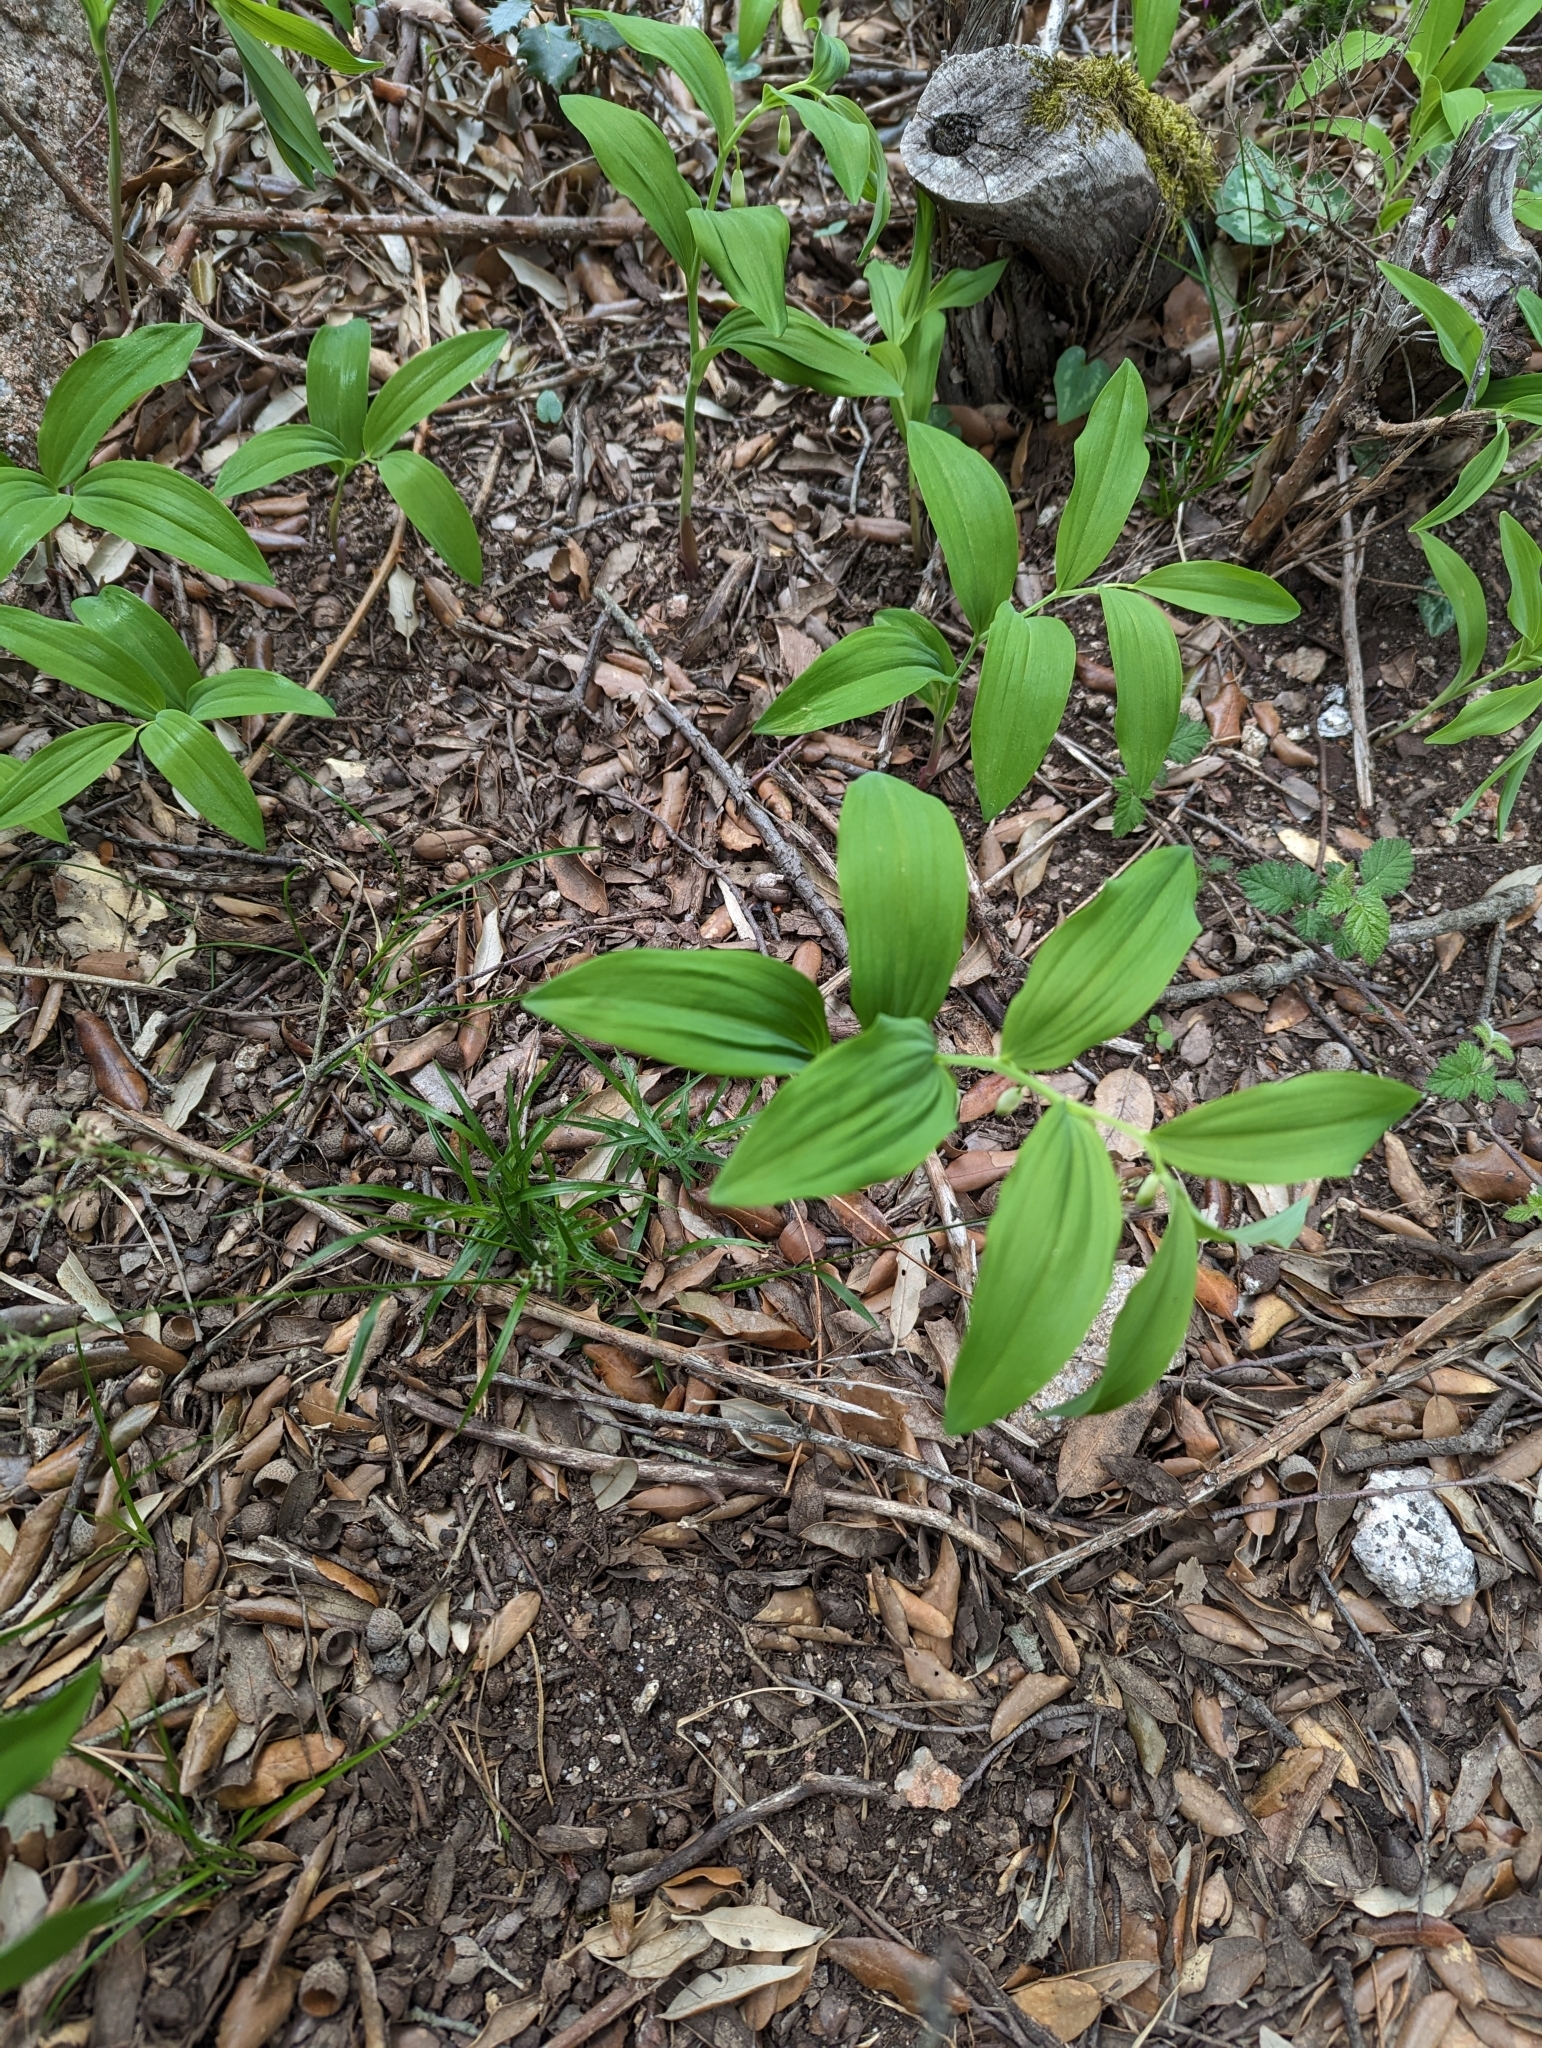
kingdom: Plantae
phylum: Tracheophyta
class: Liliopsida
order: Asparagales
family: Asparagaceae
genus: Polygonatum
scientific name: Polygonatum odoratum
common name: Angular solomon's-seal
